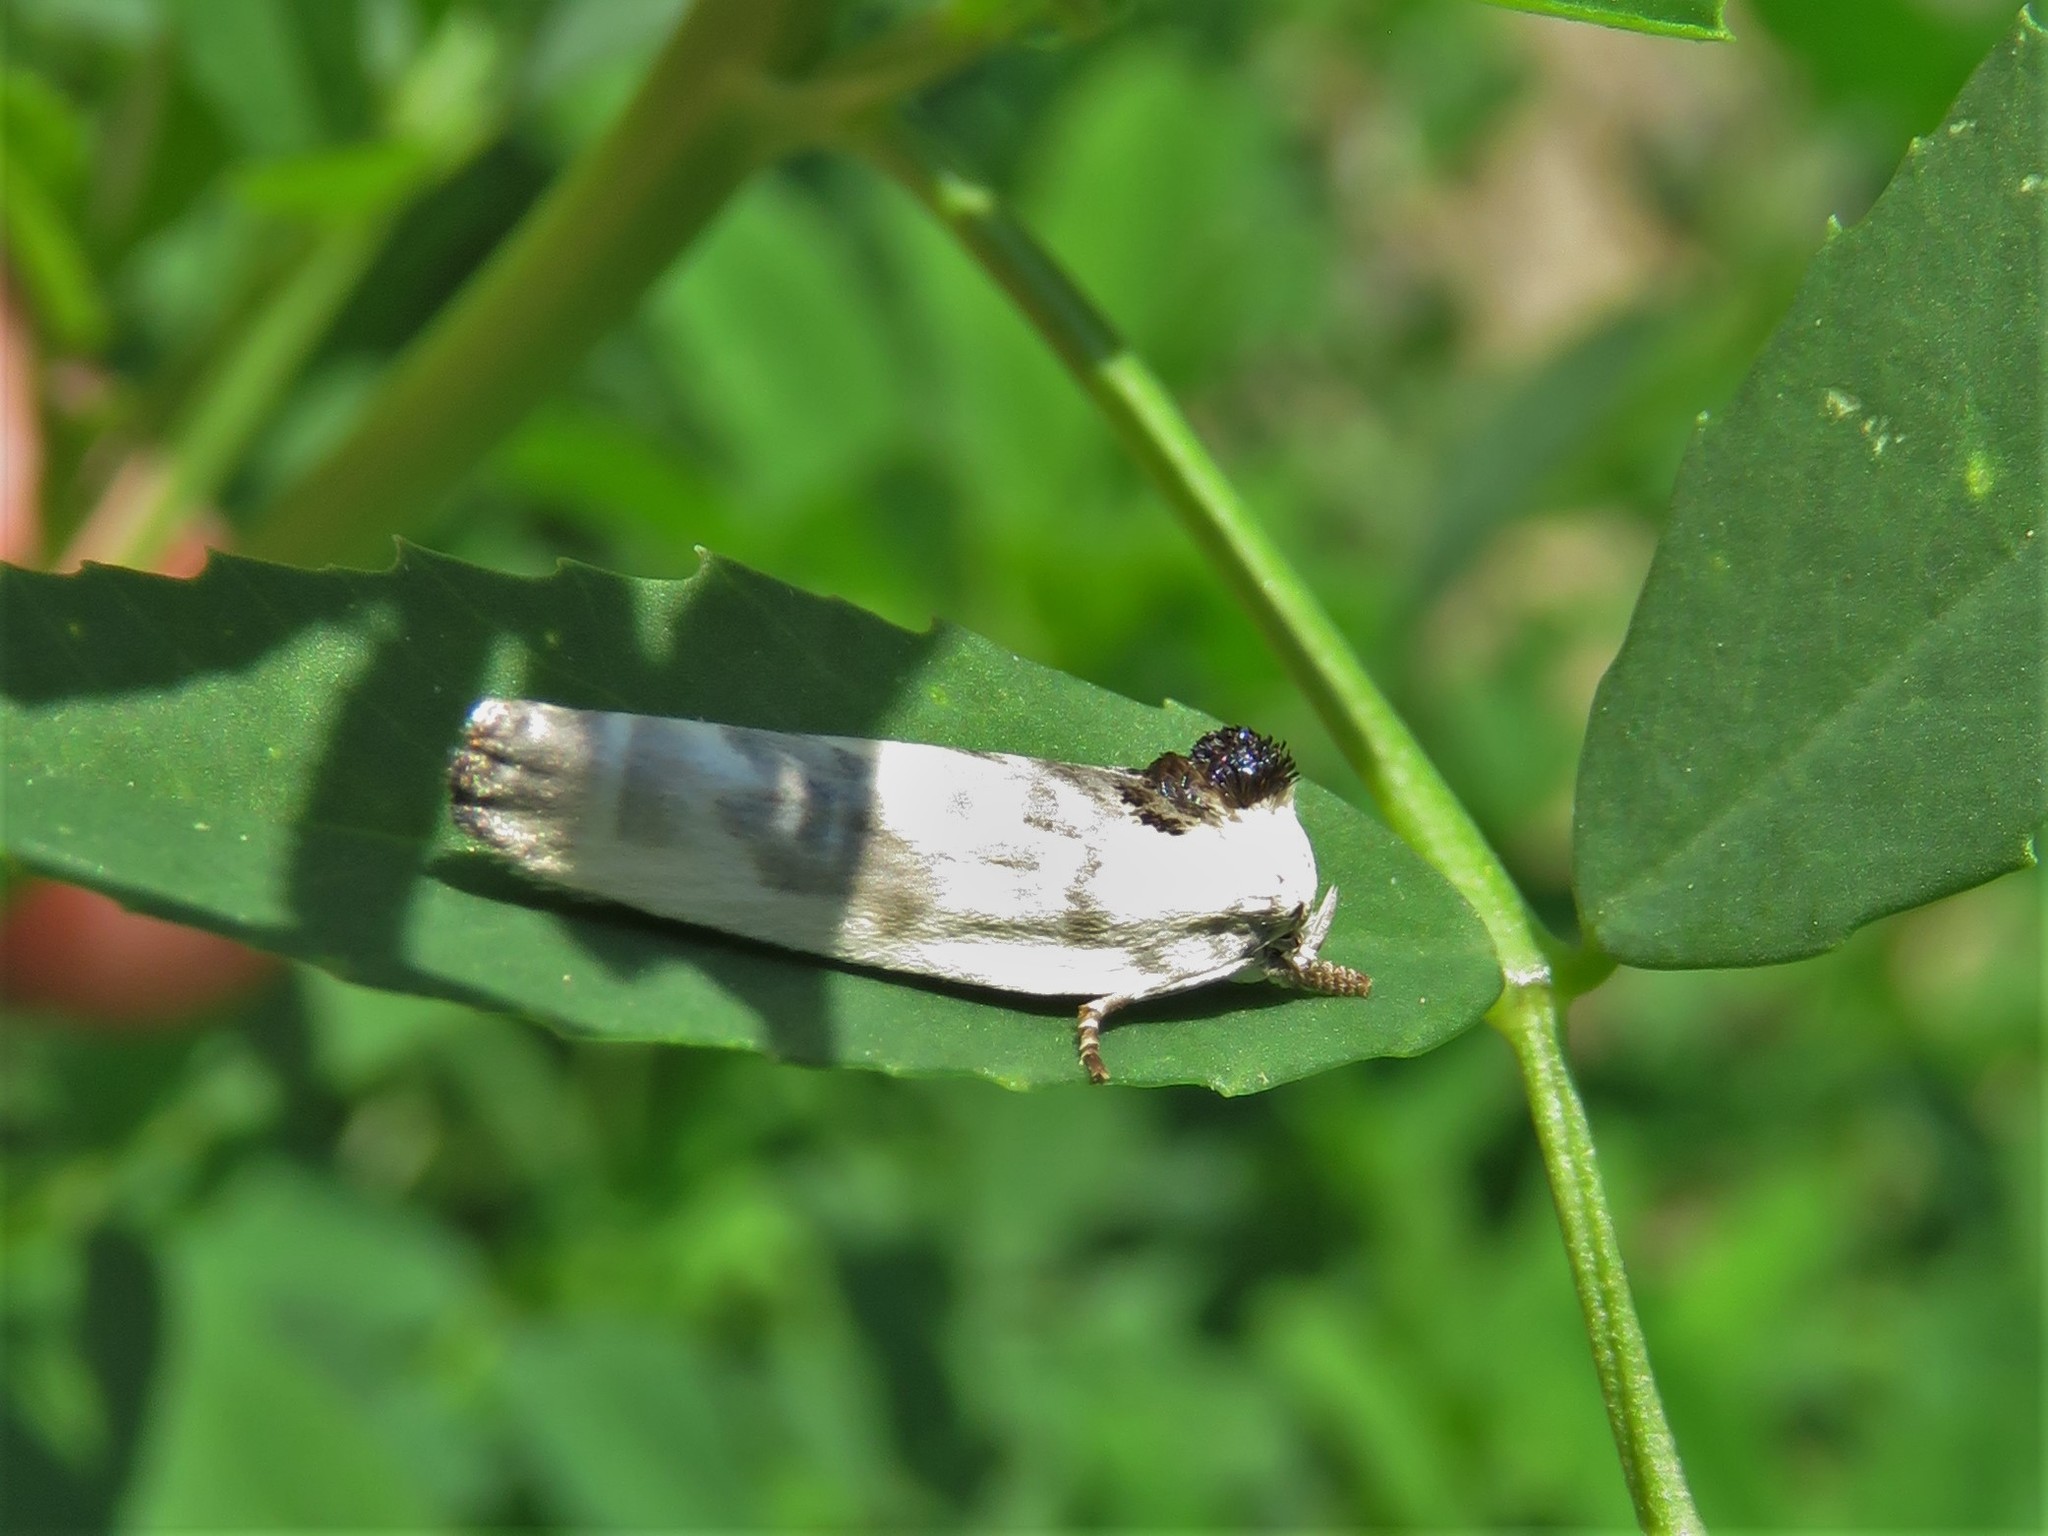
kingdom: Animalia
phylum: Arthropoda
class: Insecta
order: Lepidoptera
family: Depressariidae
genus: Antaeotricha
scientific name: Antaeotricha leucillana
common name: Pale gray bird-dropping moth
